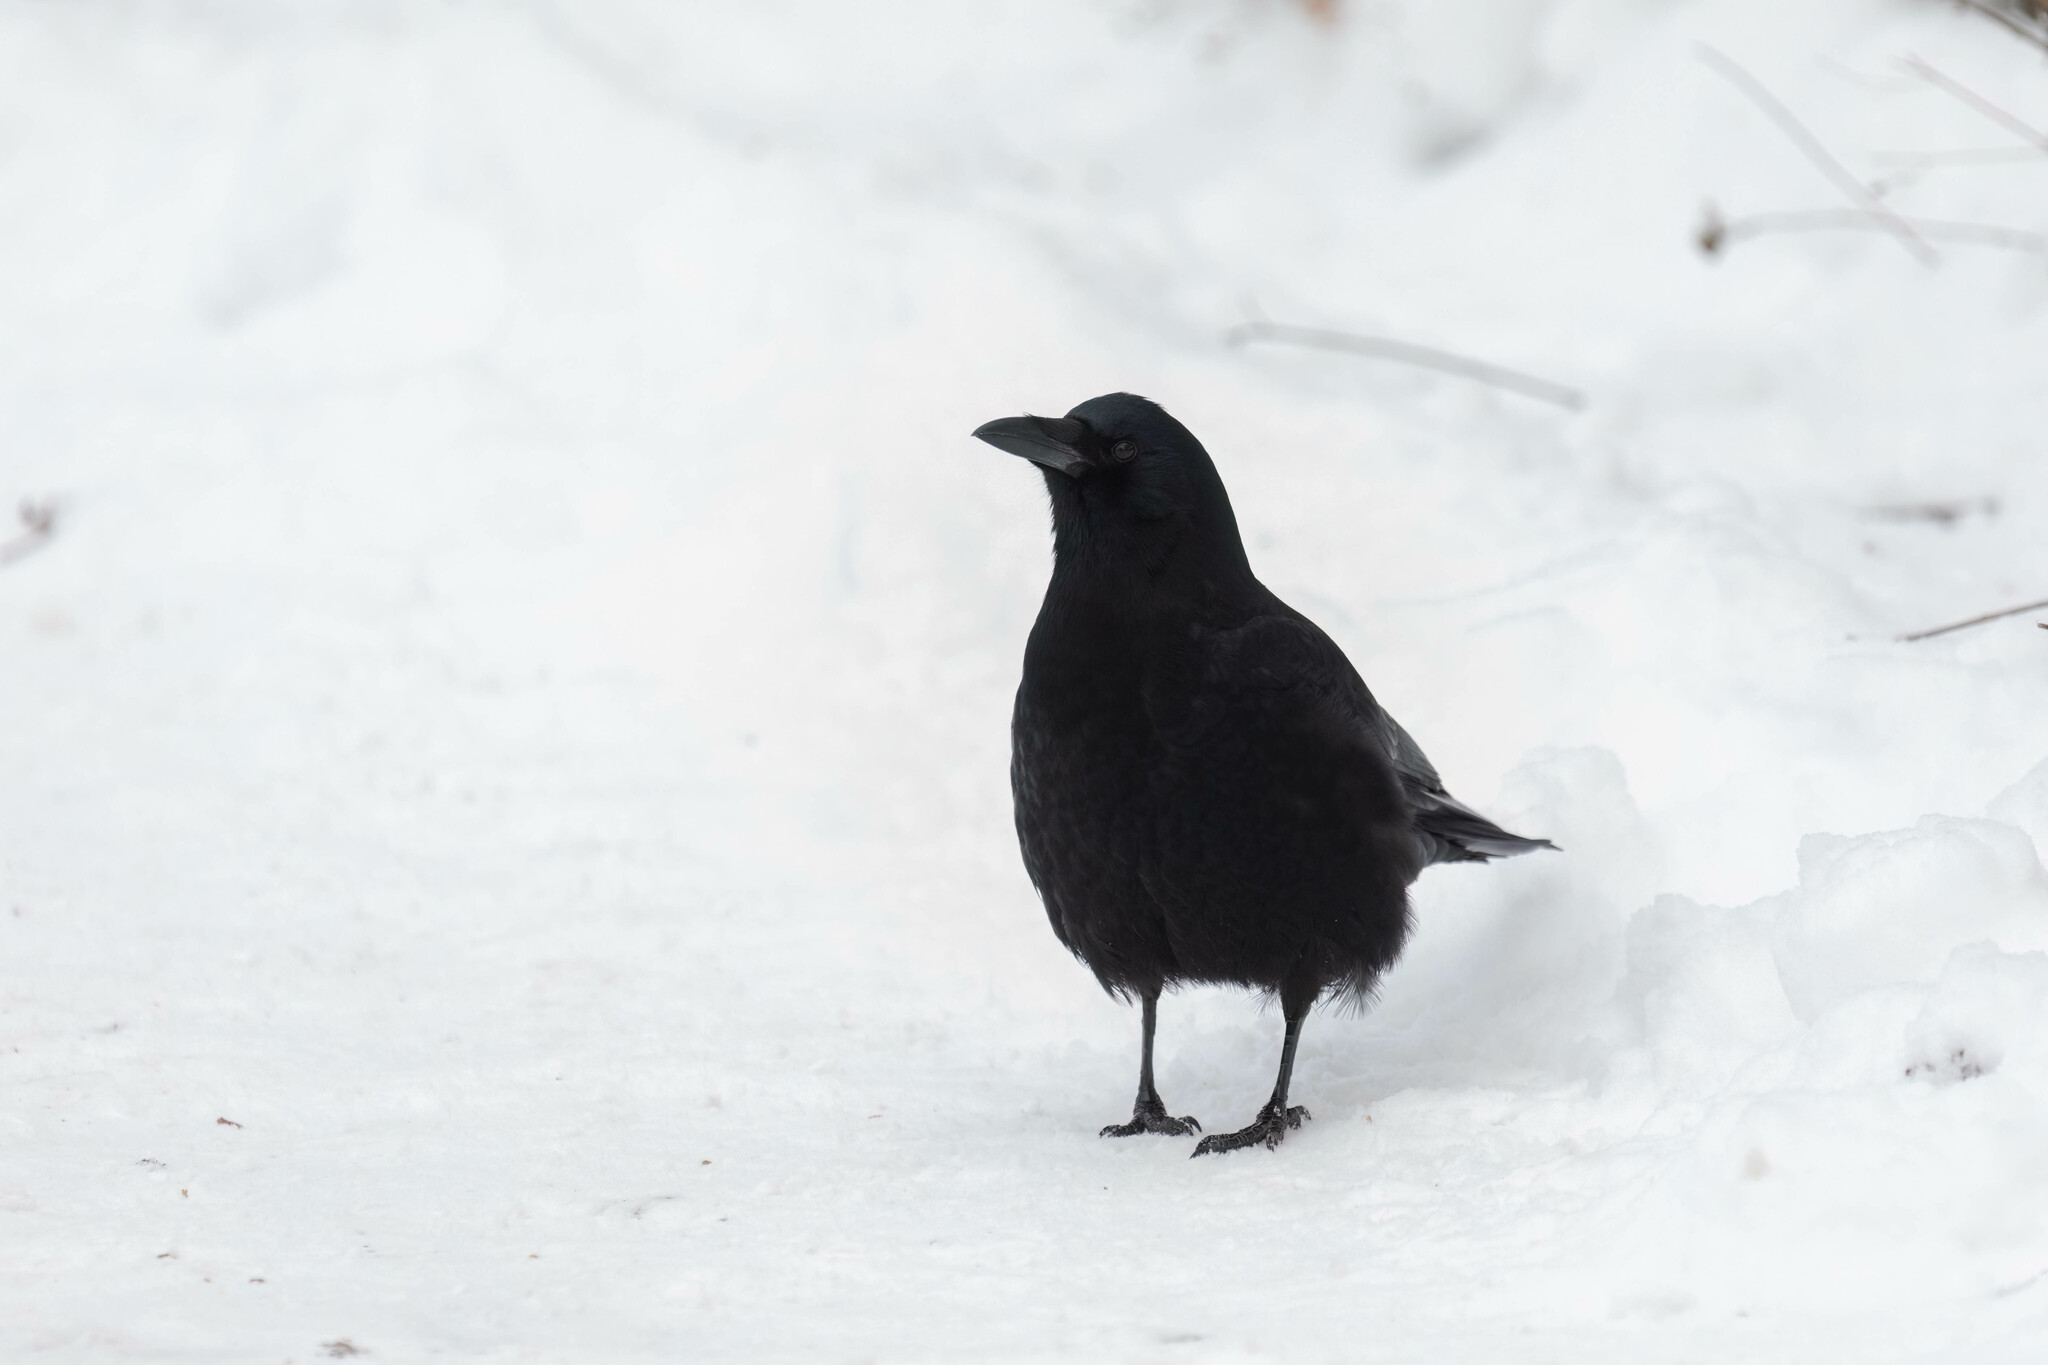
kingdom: Animalia
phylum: Chordata
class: Aves
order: Passeriformes
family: Corvidae
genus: Corvus
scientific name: Corvus brachyrhynchos
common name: American crow
